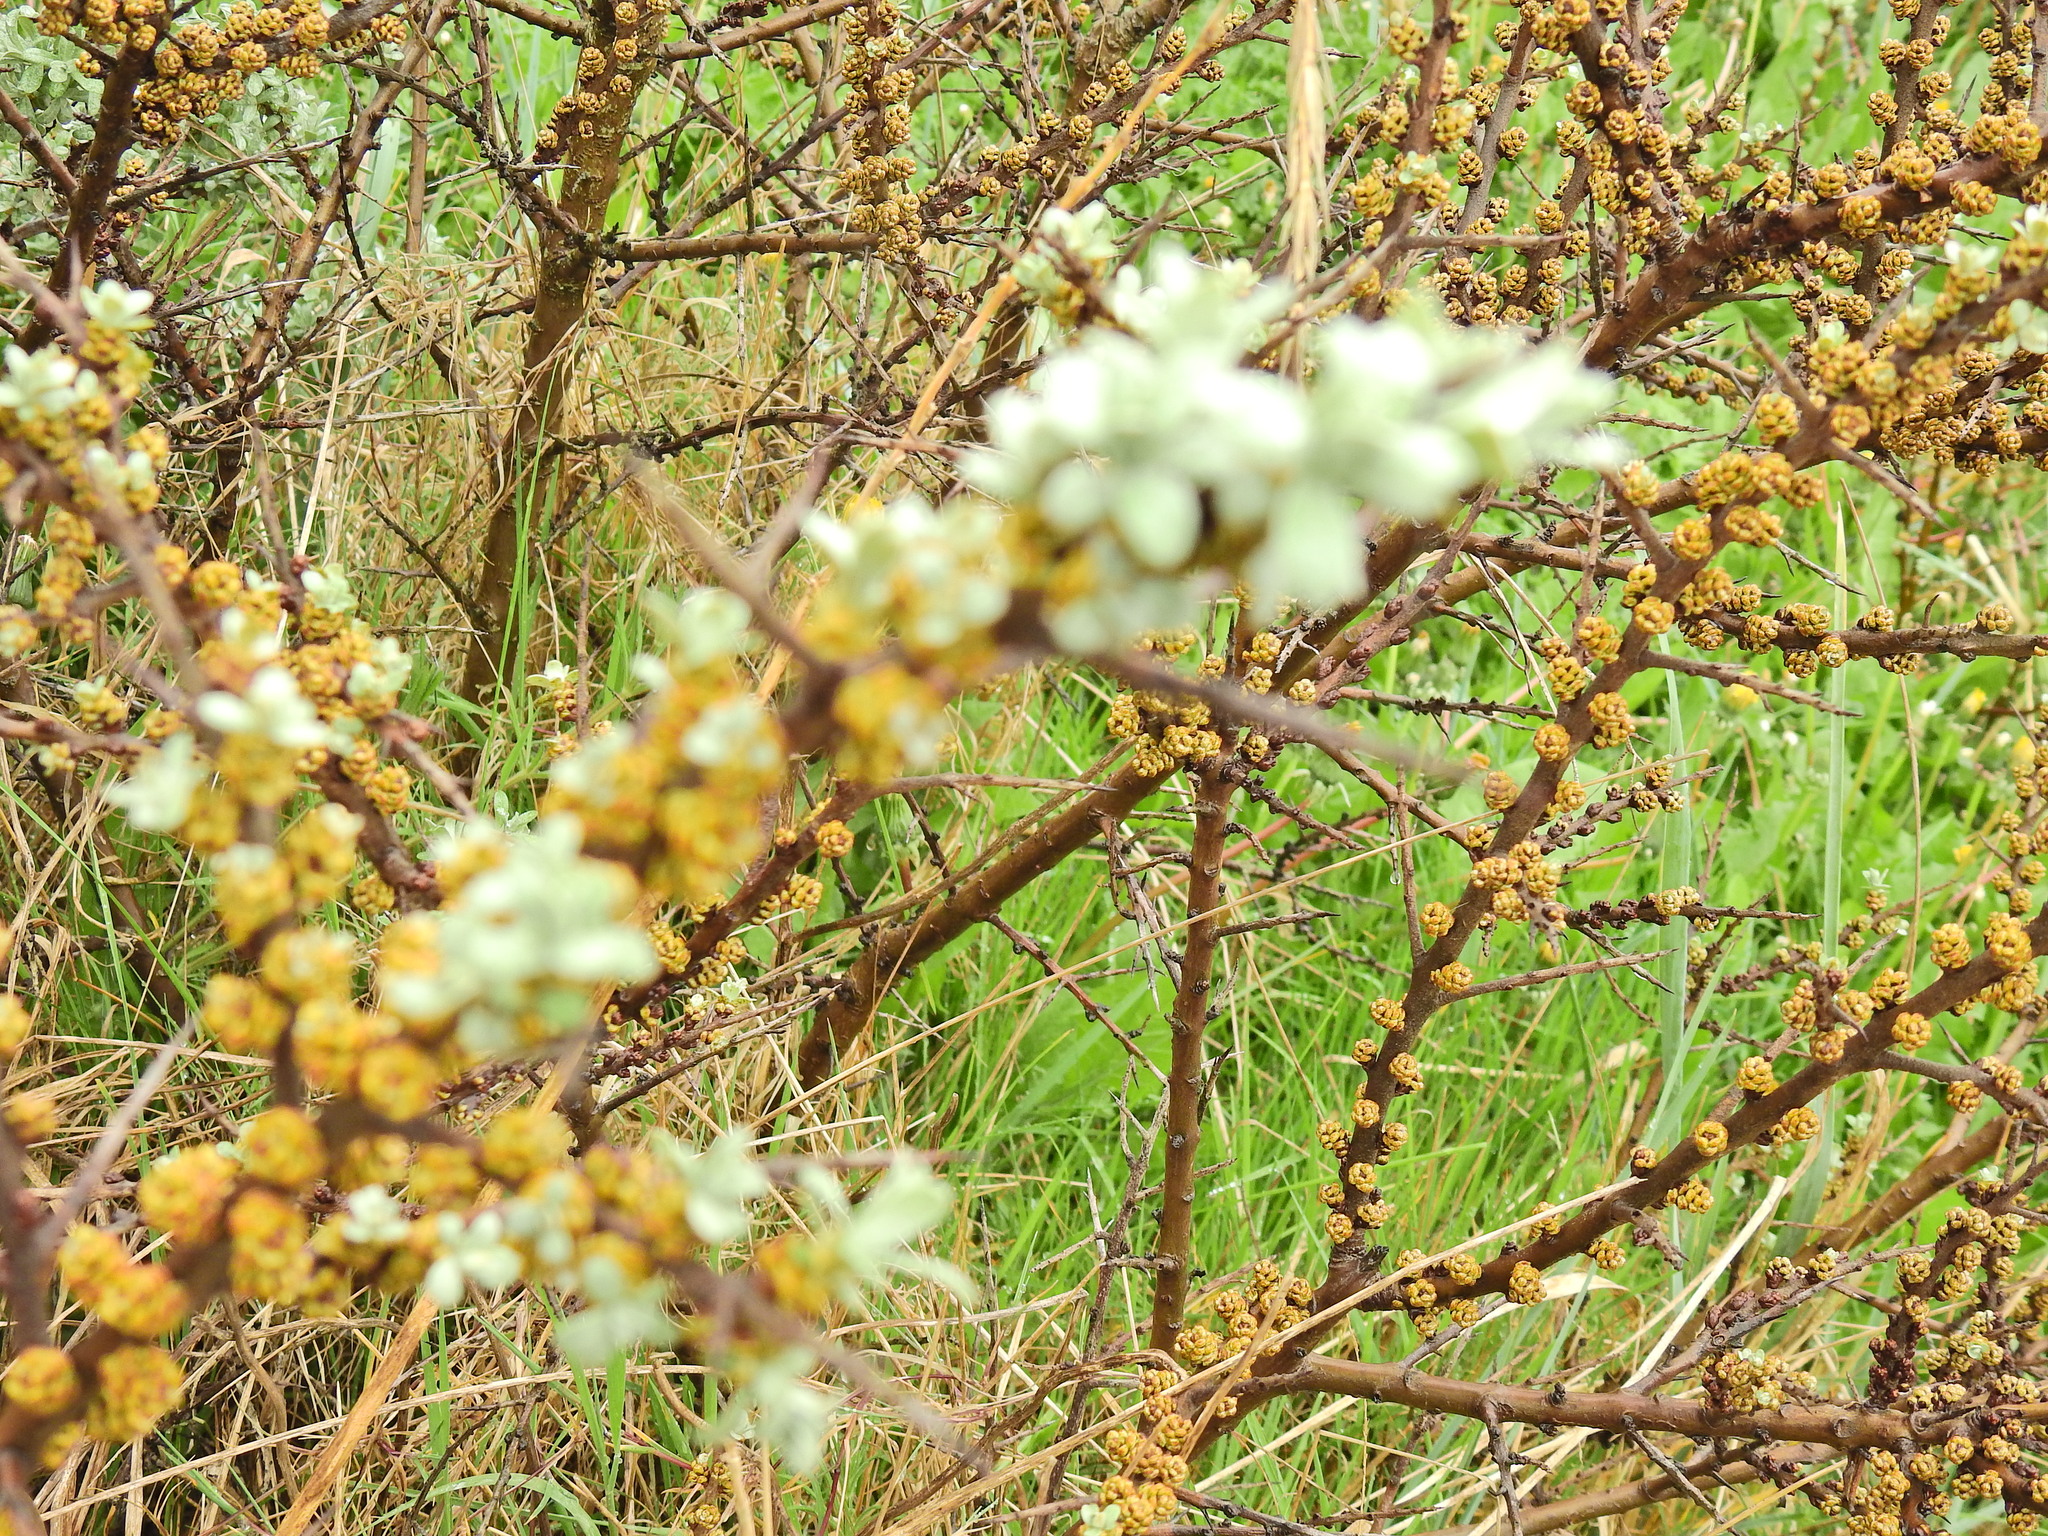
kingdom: Plantae
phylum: Tracheophyta
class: Magnoliopsida
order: Rosales
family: Elaeagnaceae
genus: Hippophae
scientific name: Hippophae rhamnoides
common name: Sea-buckthorn
